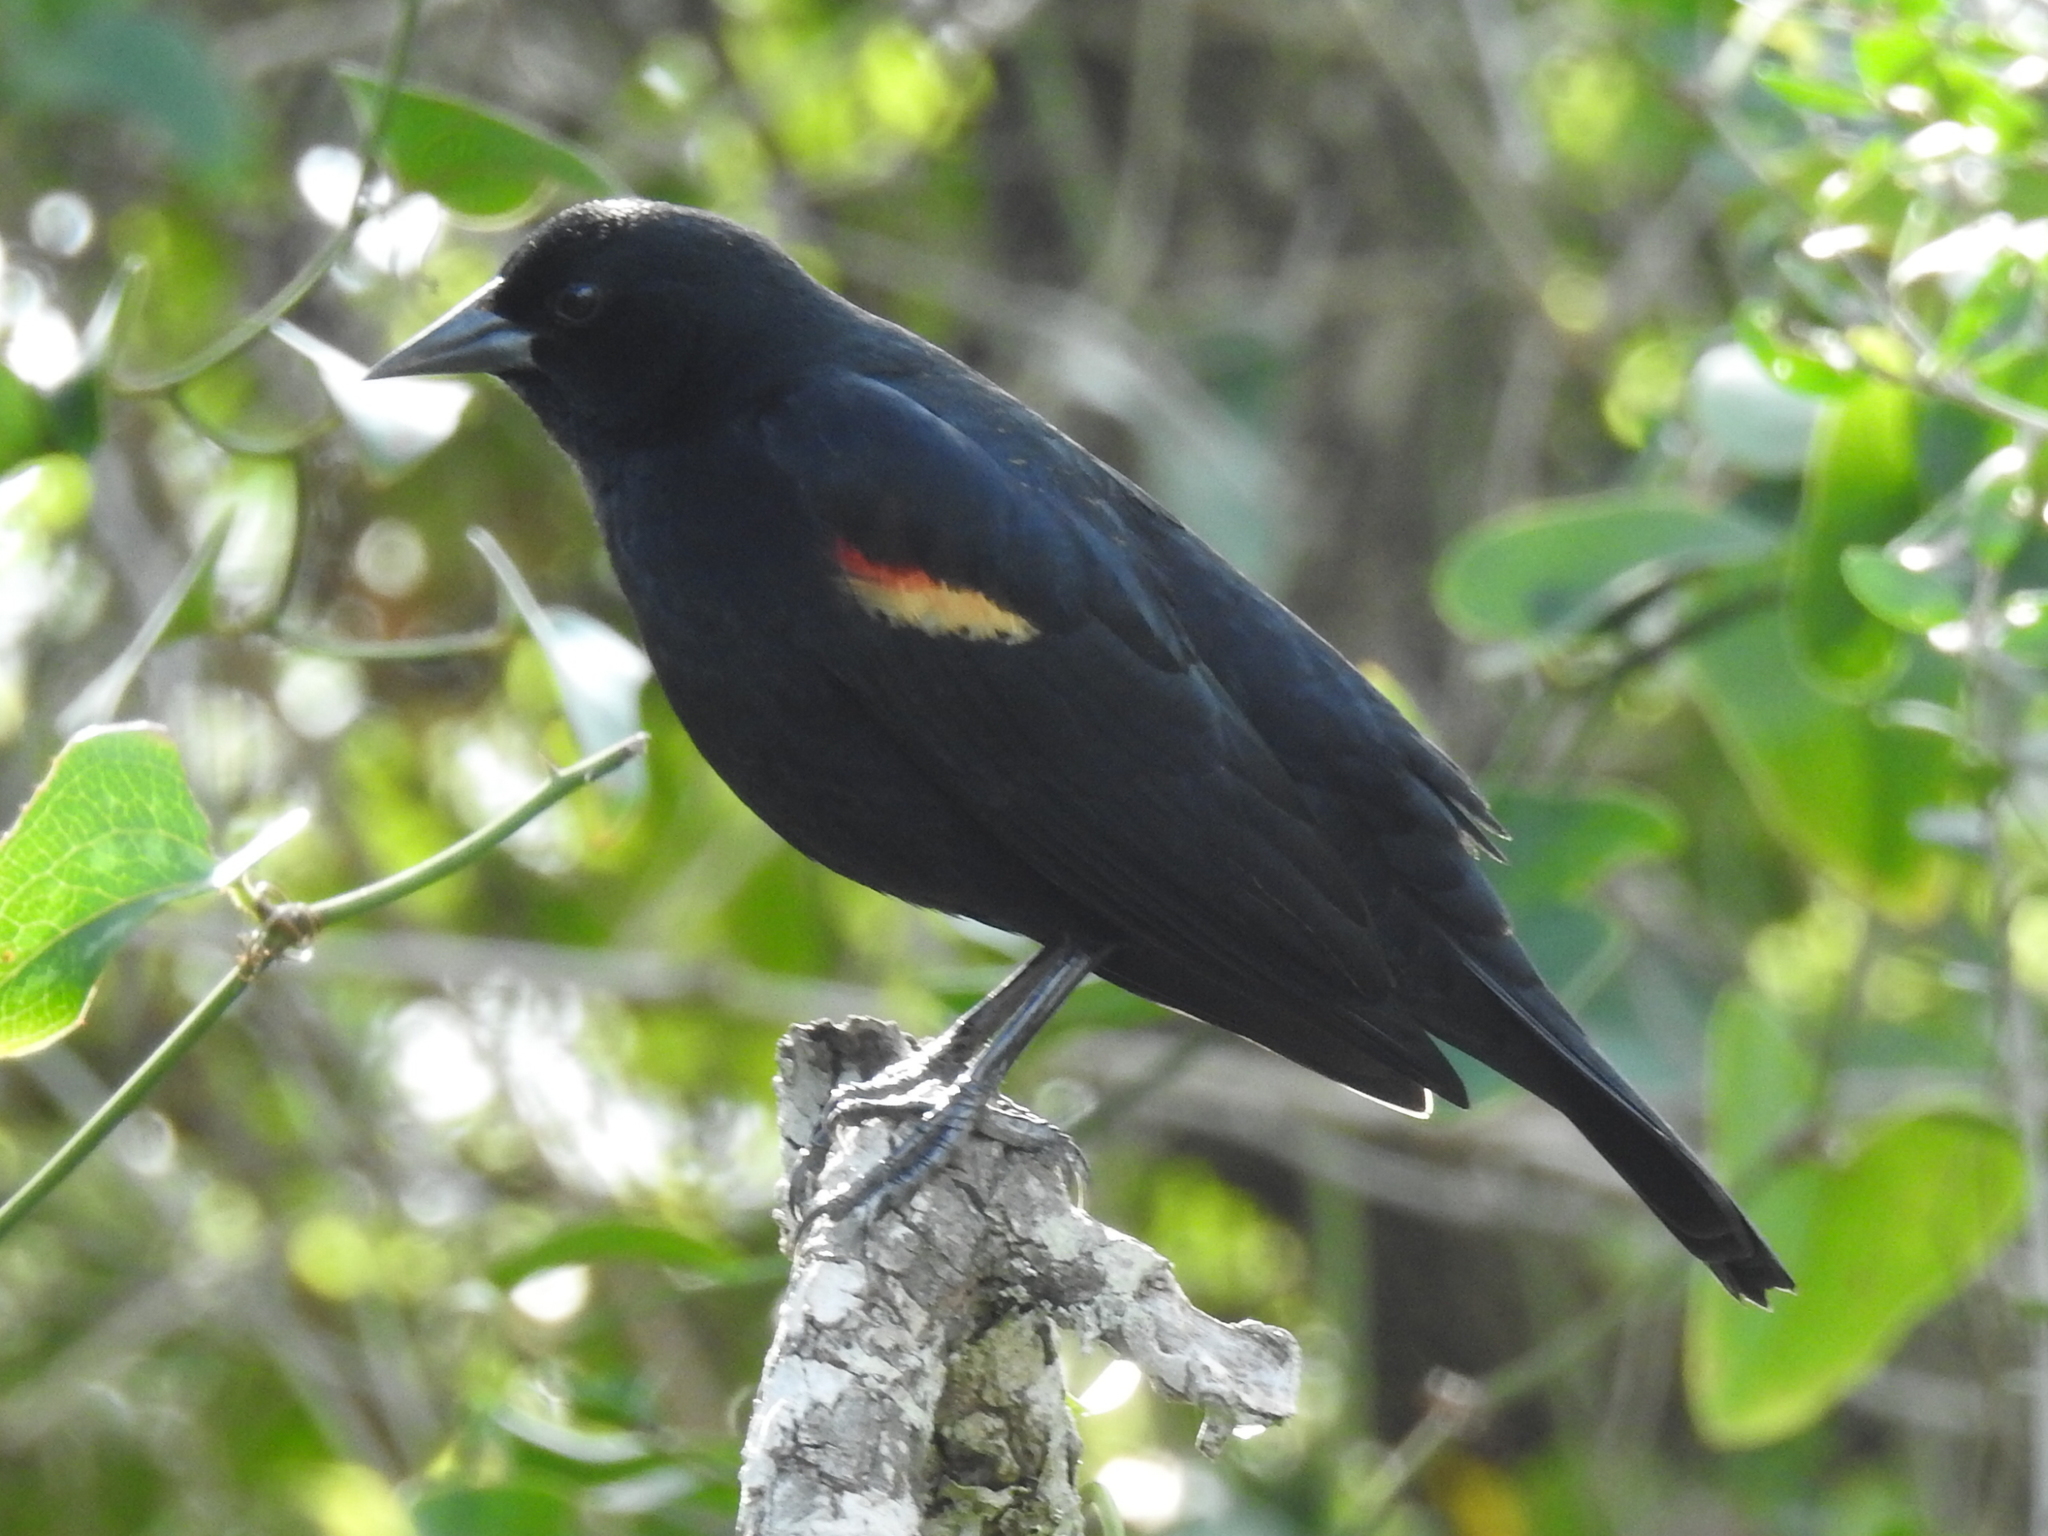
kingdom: Animalia
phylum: Chordata
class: Aves
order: Passeriformes
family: Icteridae
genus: Agelaius
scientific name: Agelaius phoeniceus
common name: Red-winged blackbird
